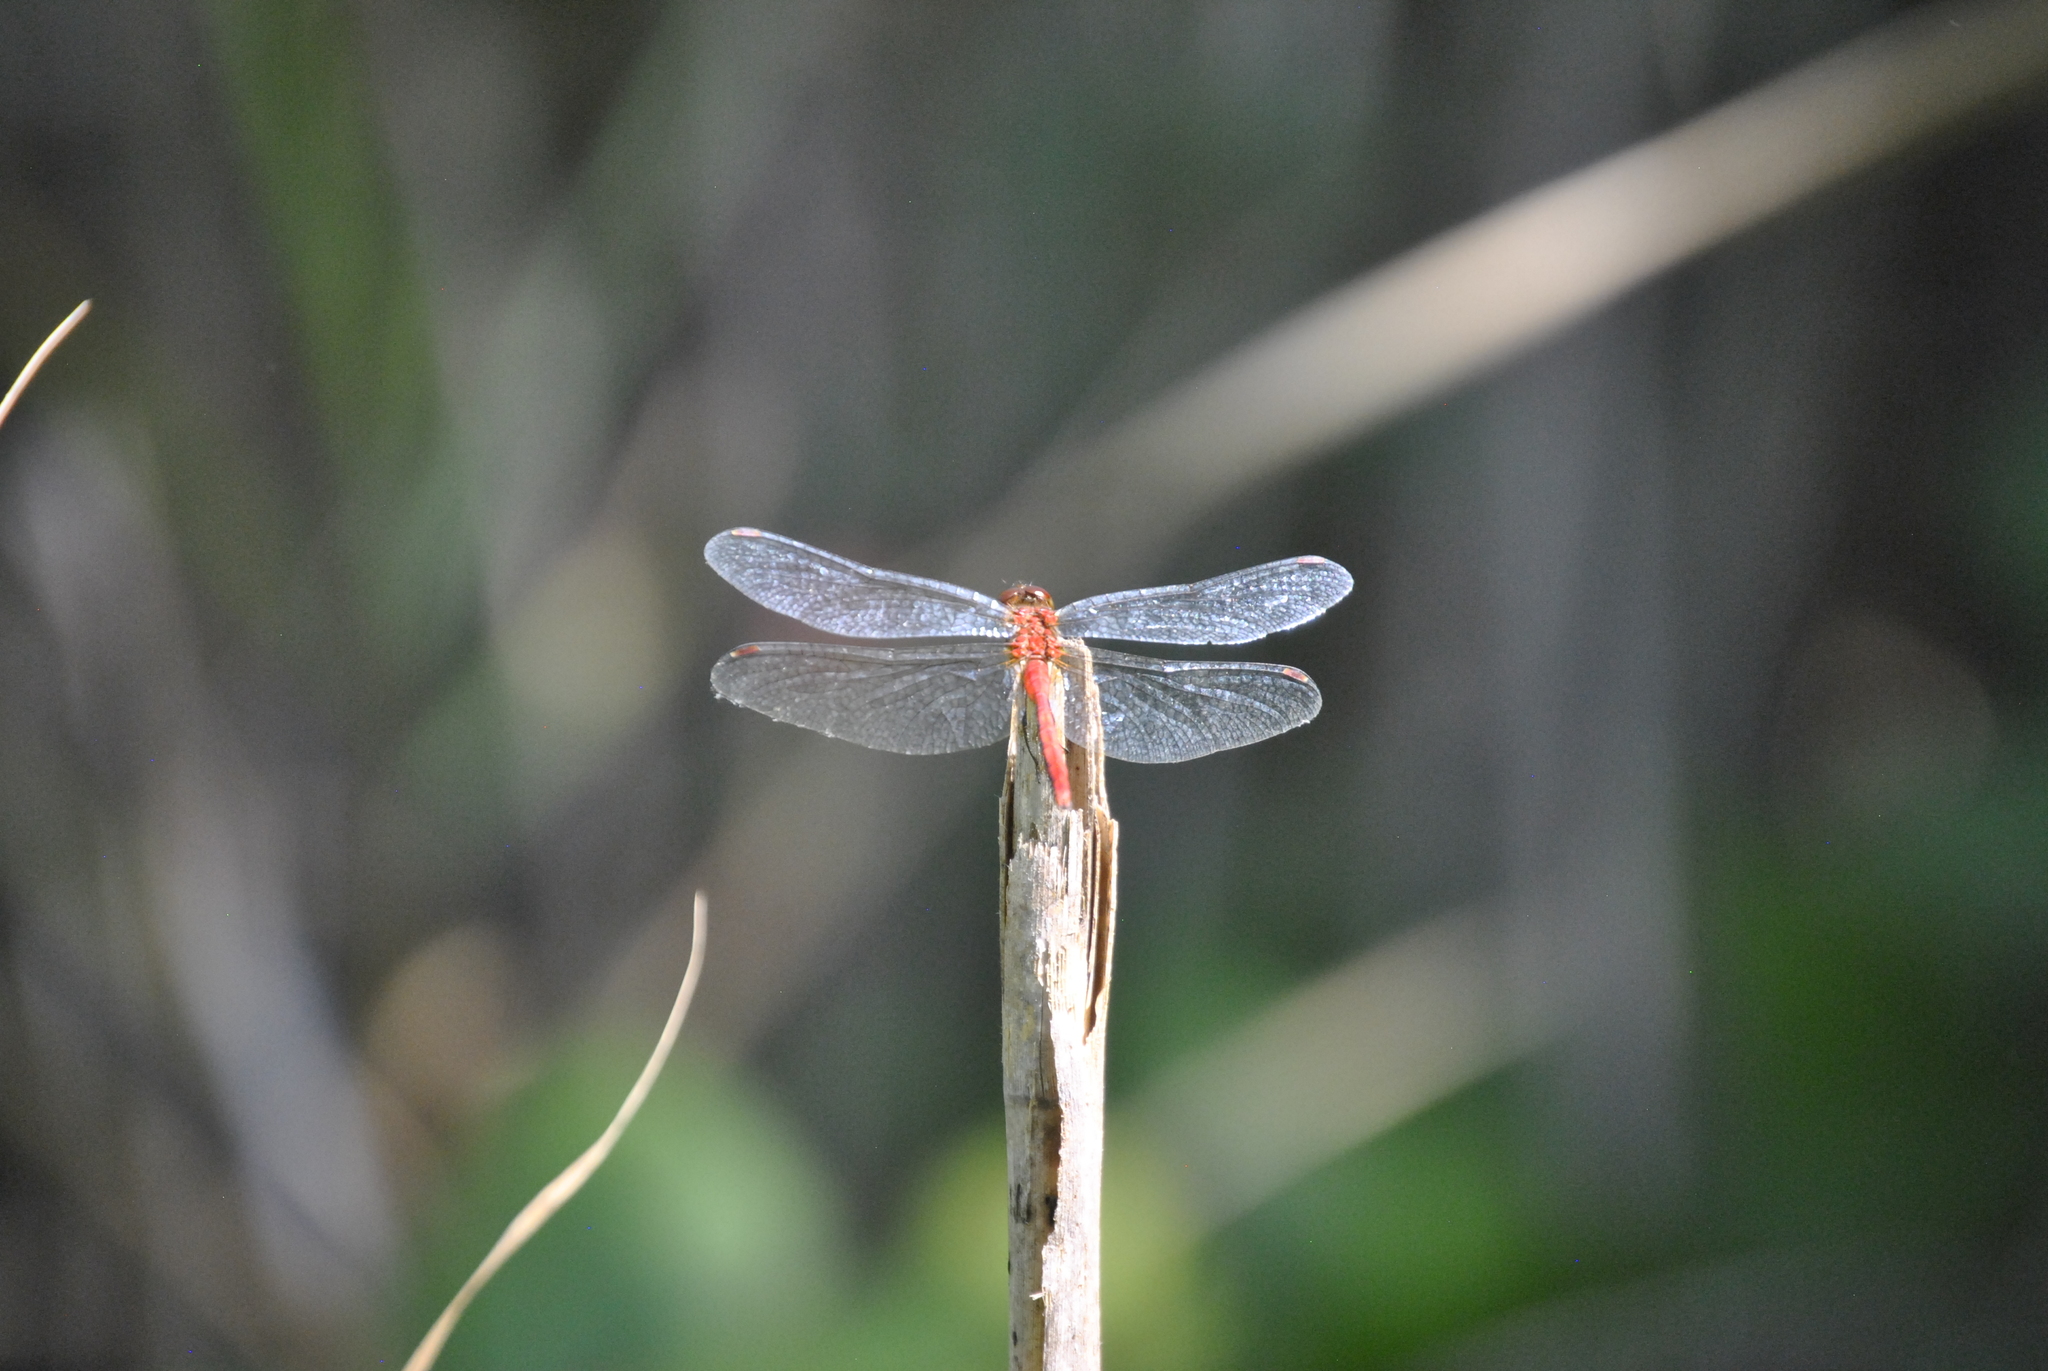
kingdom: Animalia
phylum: Arthropoda
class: Insecta
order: Odonata
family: Libellulidae
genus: Sympetrum
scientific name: Sympetrum
